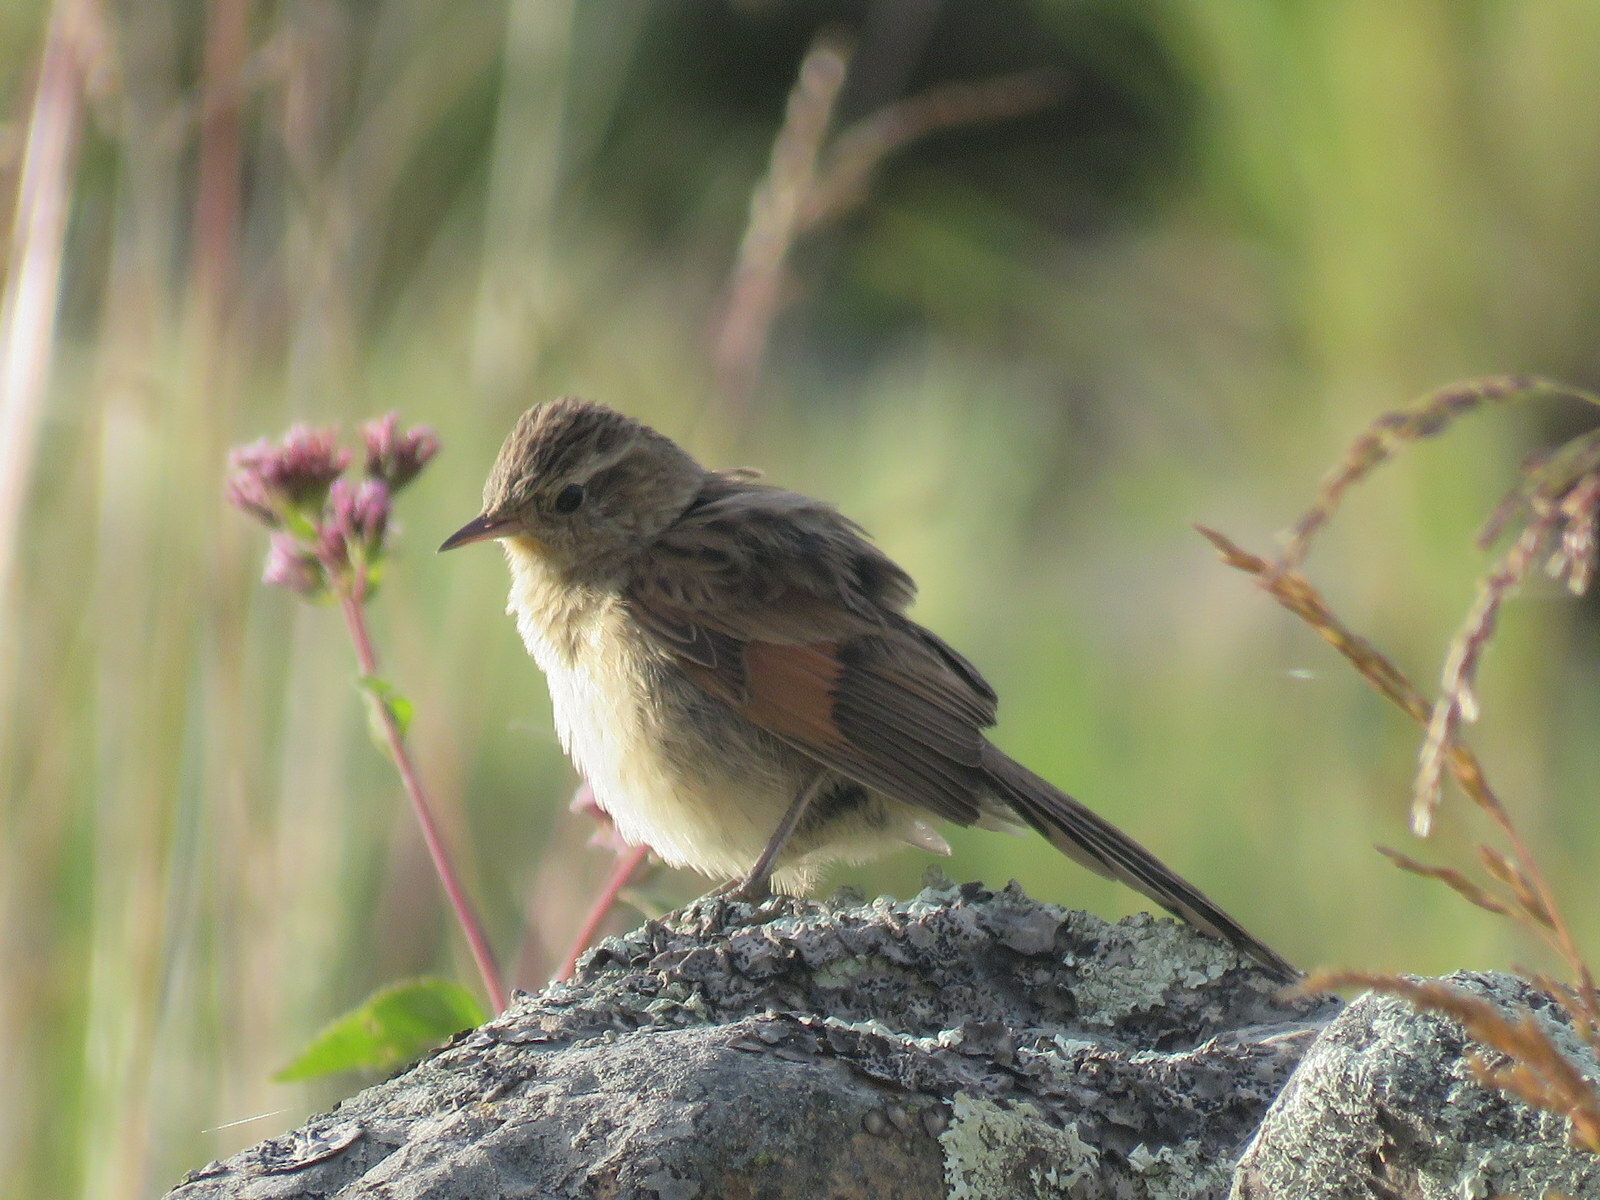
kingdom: Animalia
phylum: Chordata
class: Aves
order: Passeriformes
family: Furnariidae
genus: Asthenes
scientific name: Asthenes wyatti
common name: Streak-backed canastero
